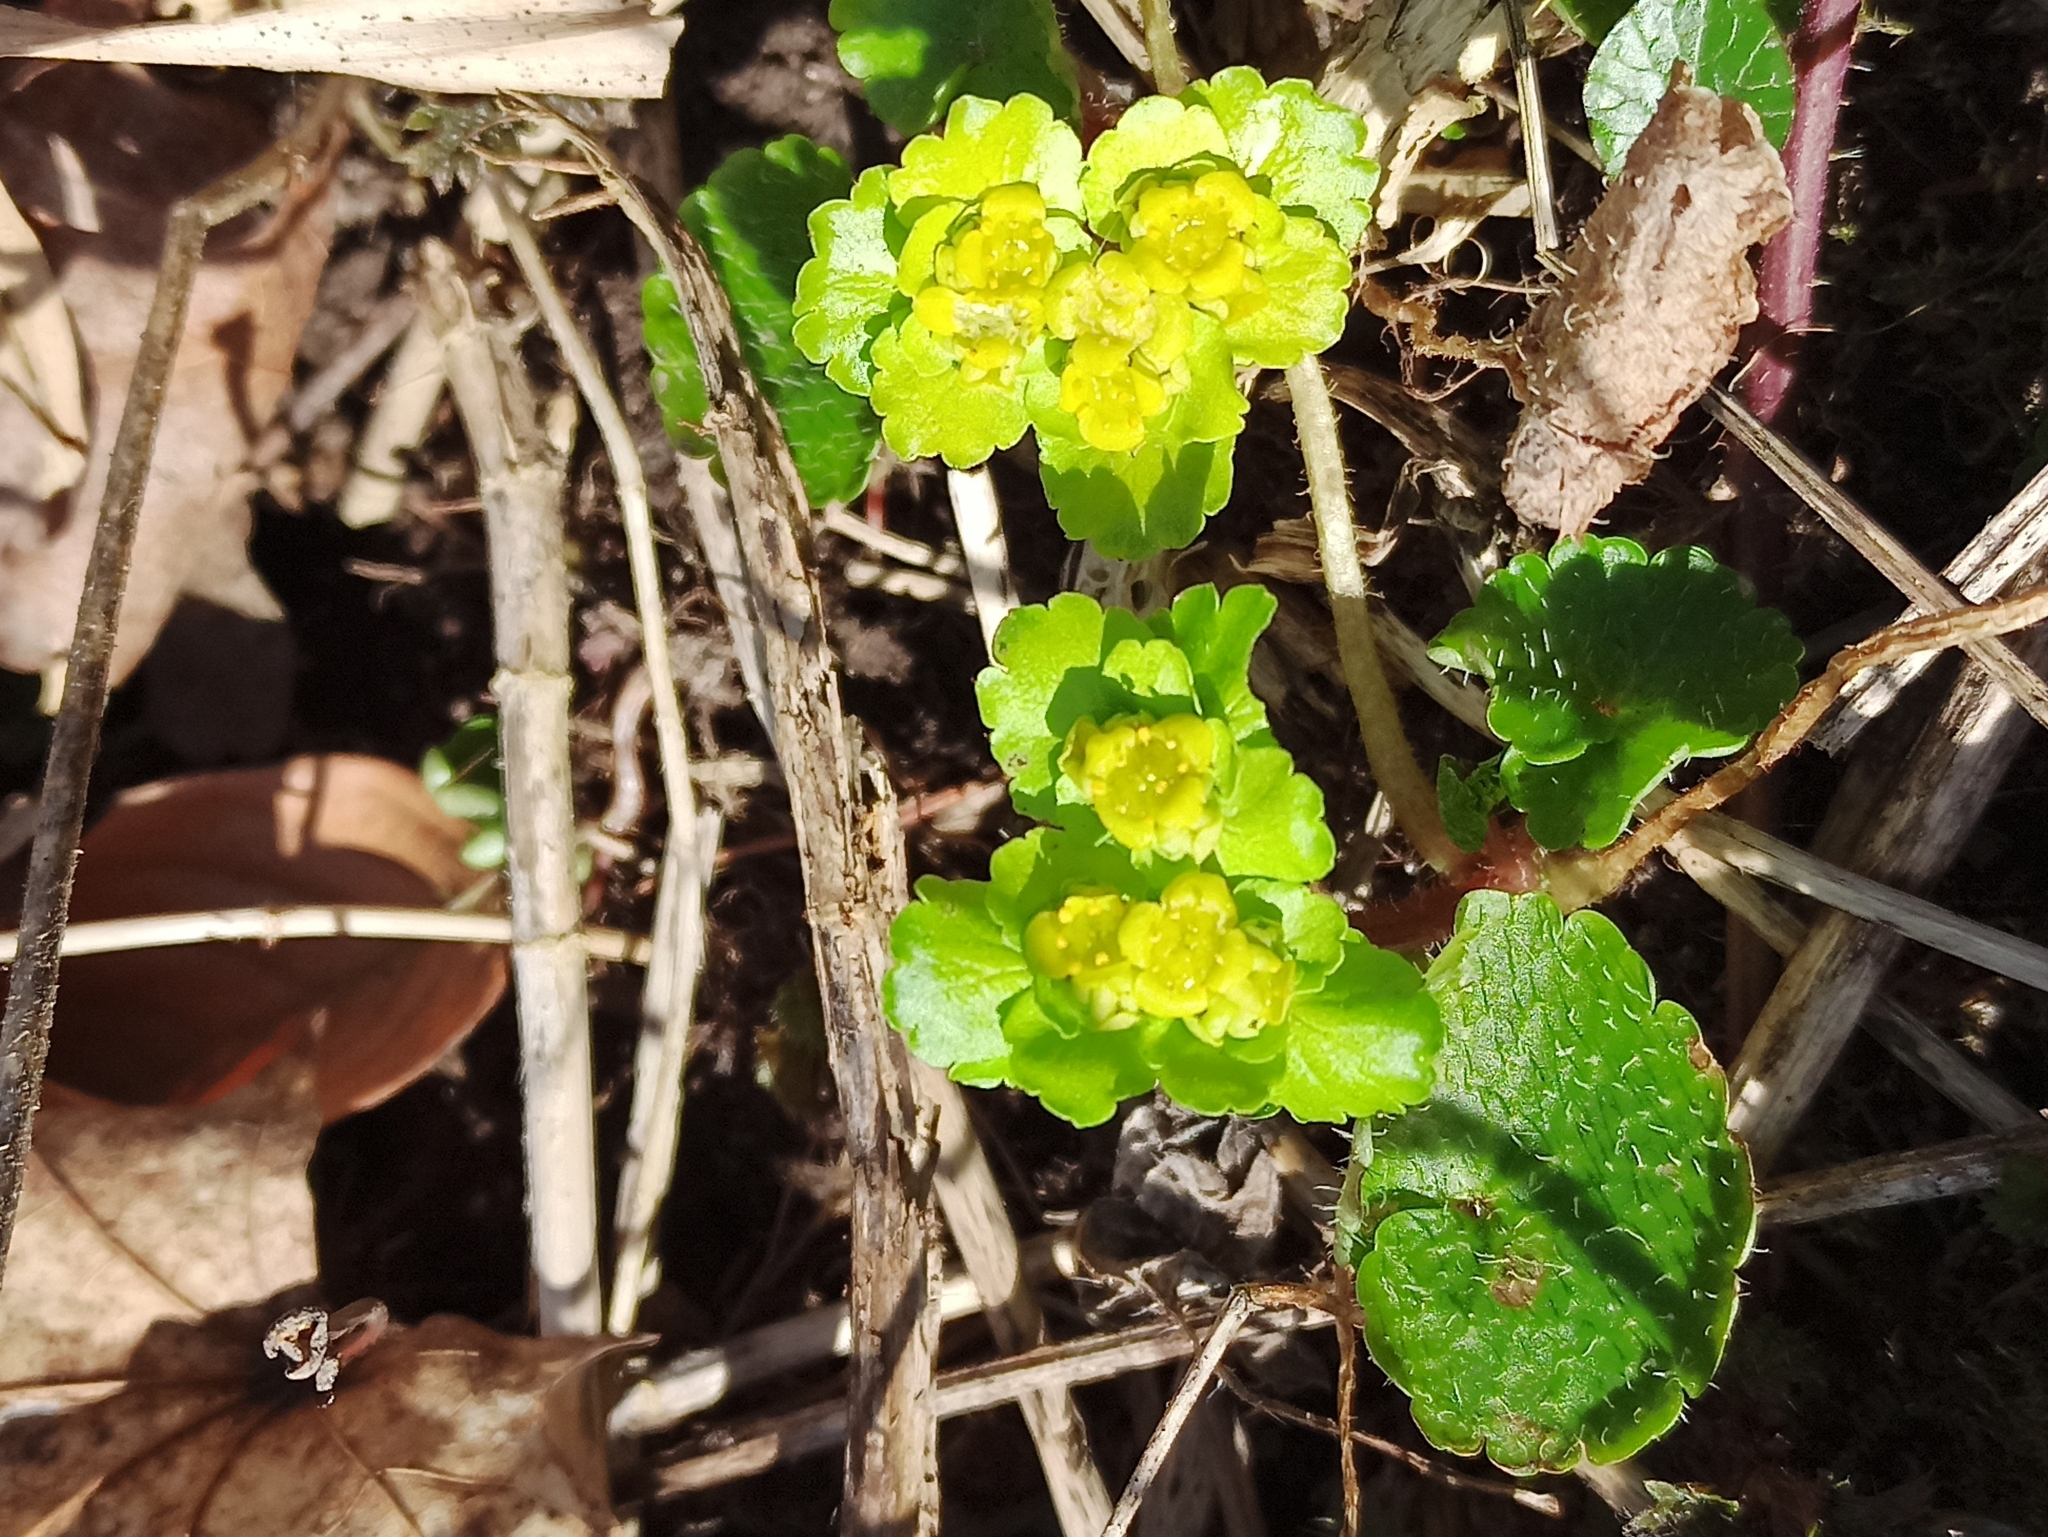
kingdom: Plantae
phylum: Tracheophyta
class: Magnoliopsida
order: Saxifragales
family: Saxifragaceae
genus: Chrysosplenium
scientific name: Chrysosplenium alternifolium
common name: Alternate-leaved golden-saxifrage
